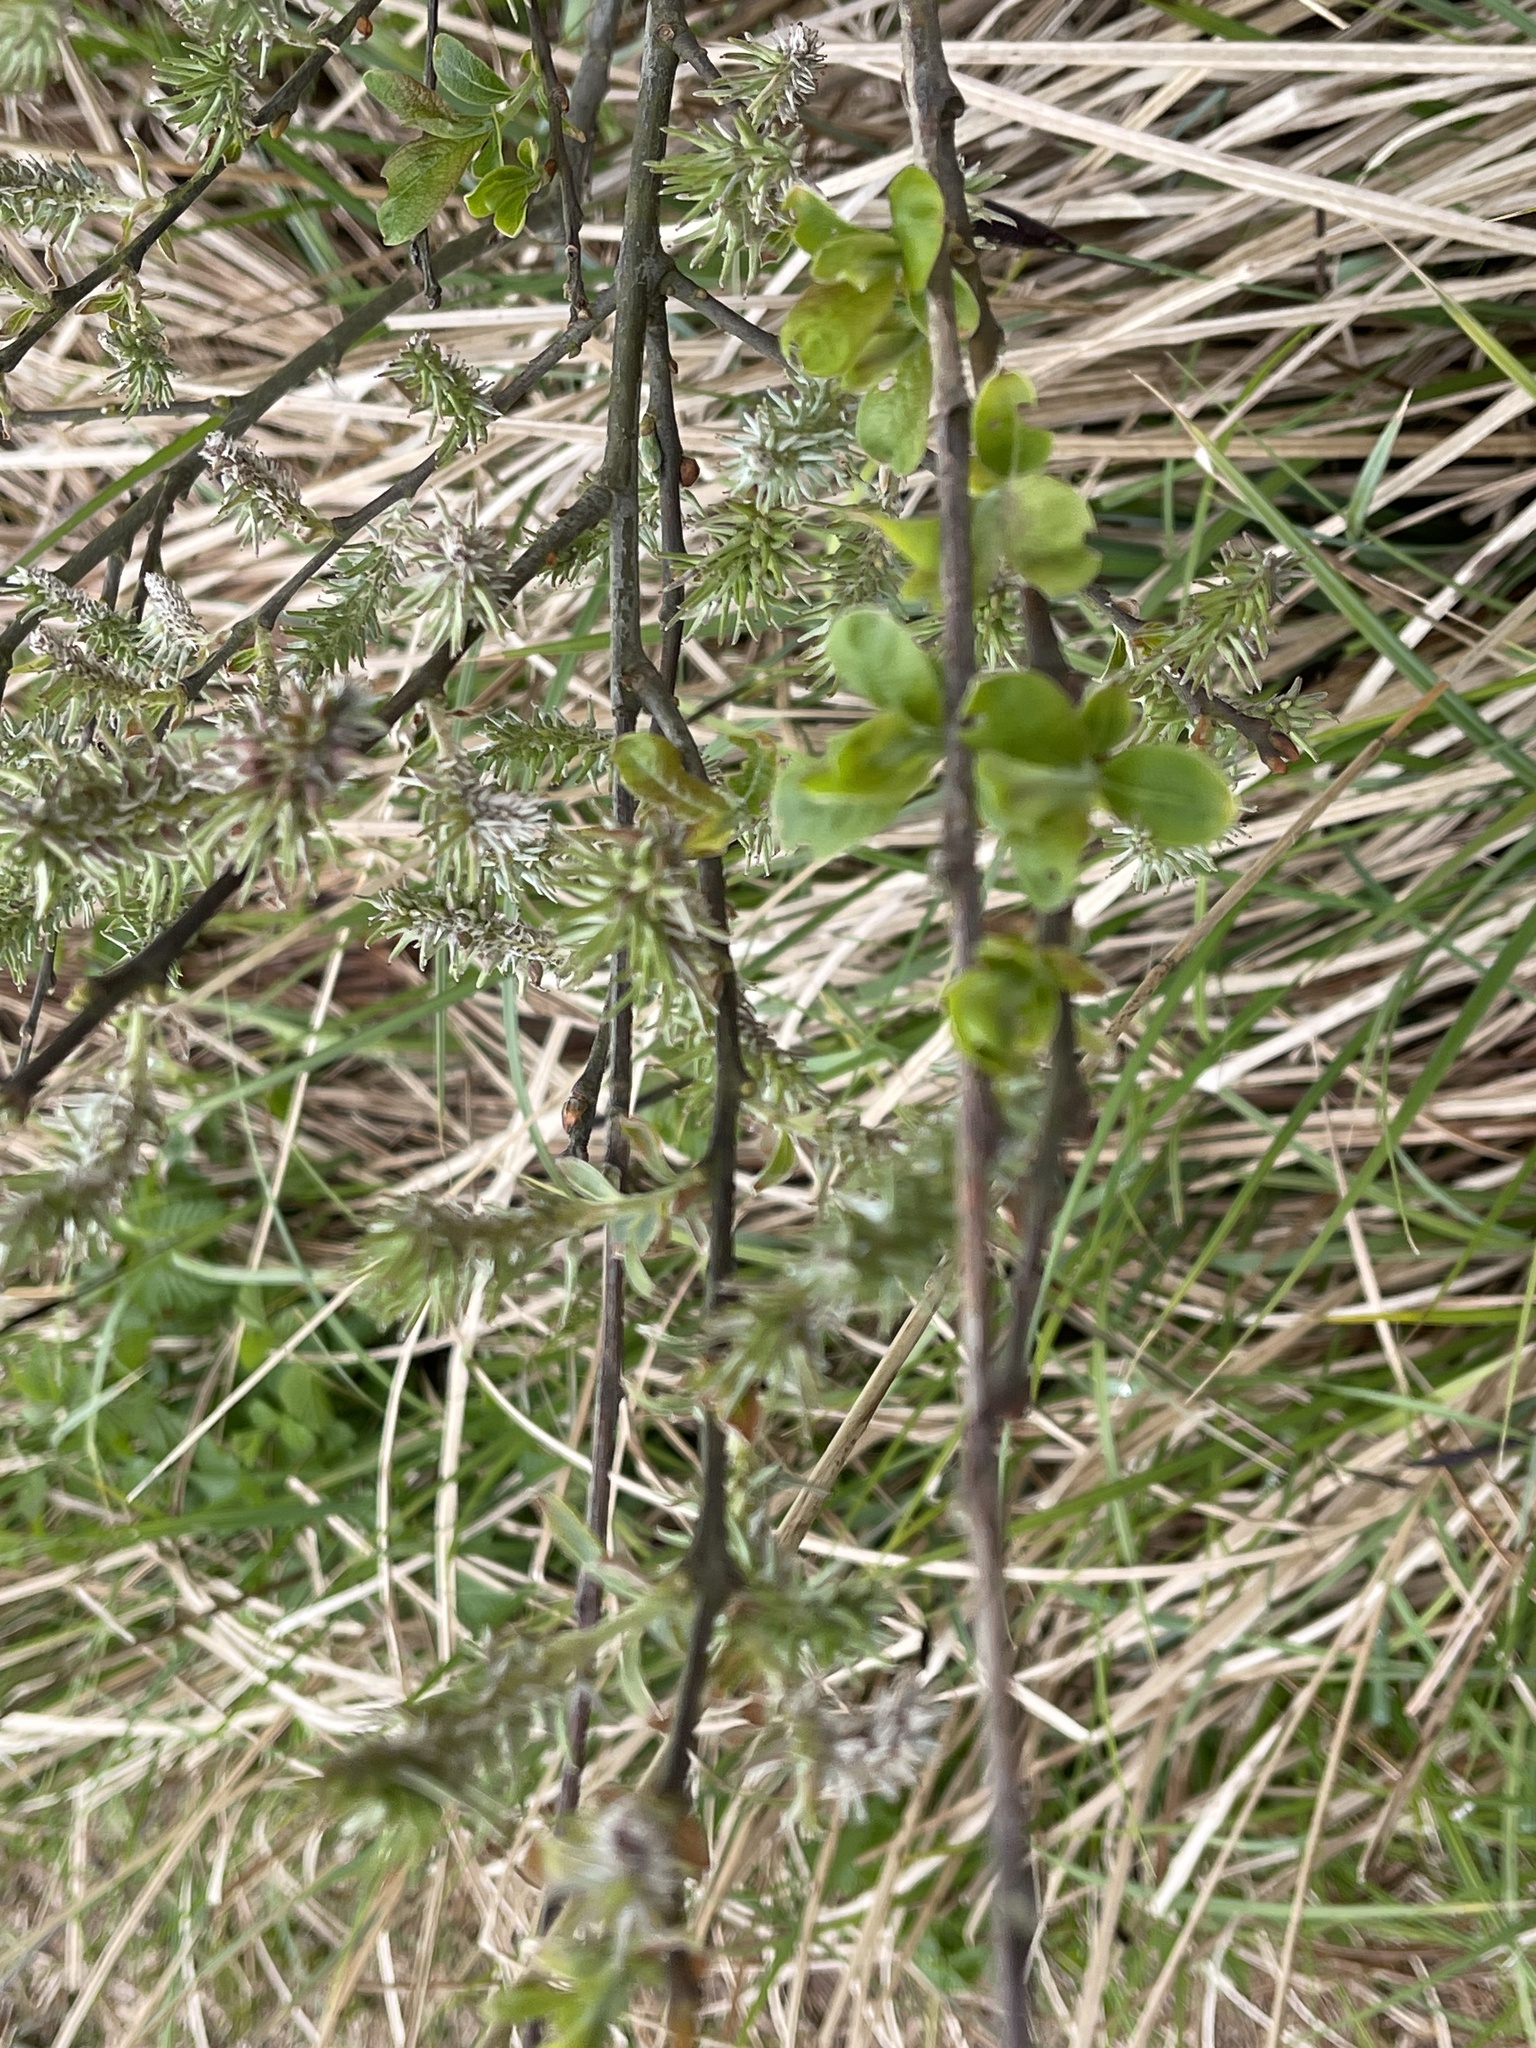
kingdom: Plantae
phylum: Tracheophyta
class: Magnoliopsida
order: Malpighiales
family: Salicaceae
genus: Salix
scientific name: Salix caprea
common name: Goat willow
